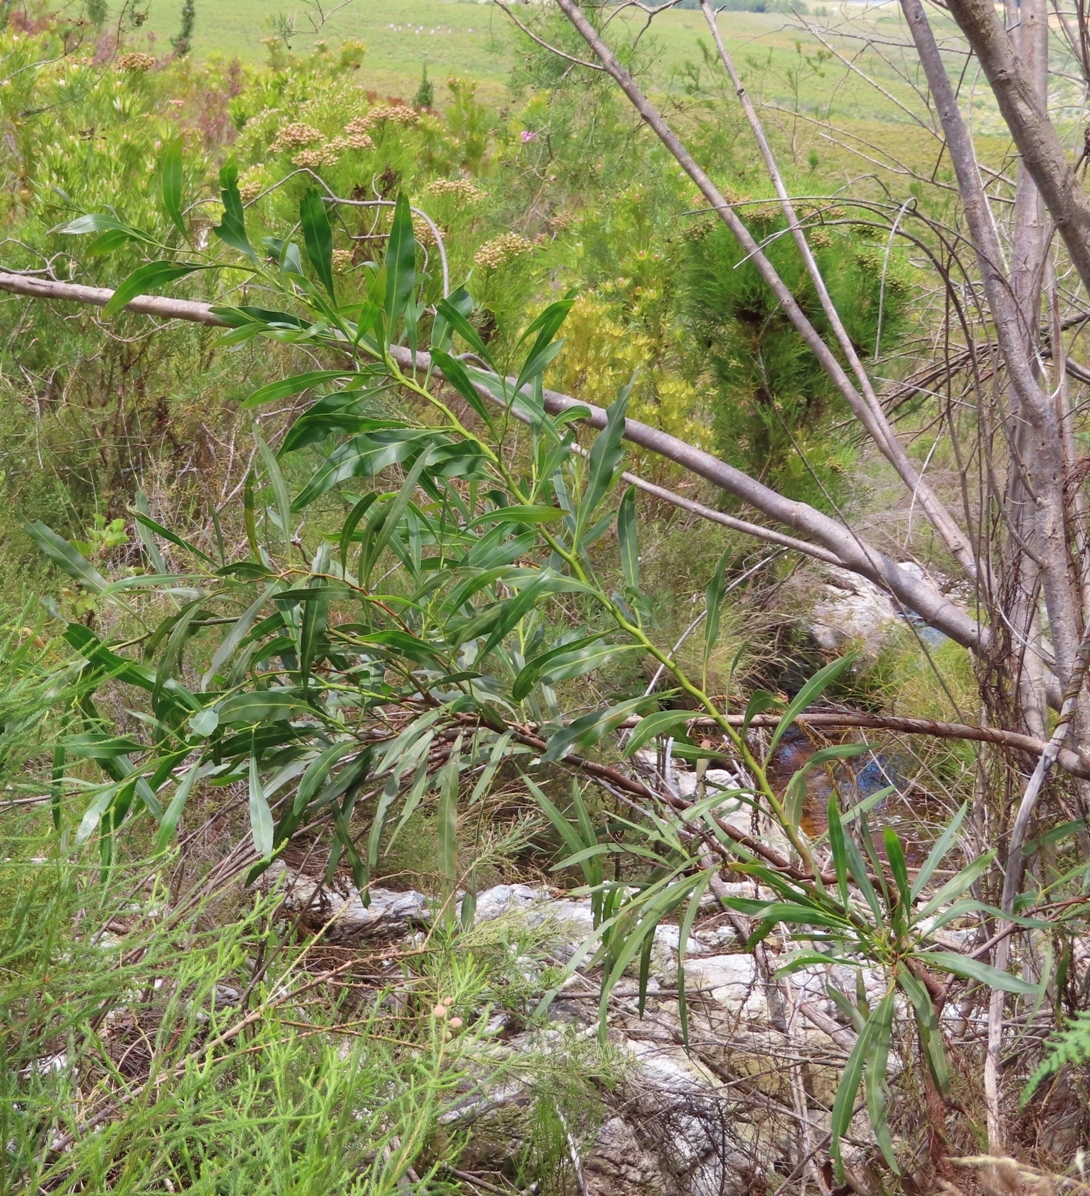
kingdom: Plantae
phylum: Tracheophyta
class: Magnoliopsida
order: Fabales
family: Fabaceae
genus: Acacia
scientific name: Acacia saligna
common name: Orange wattle
